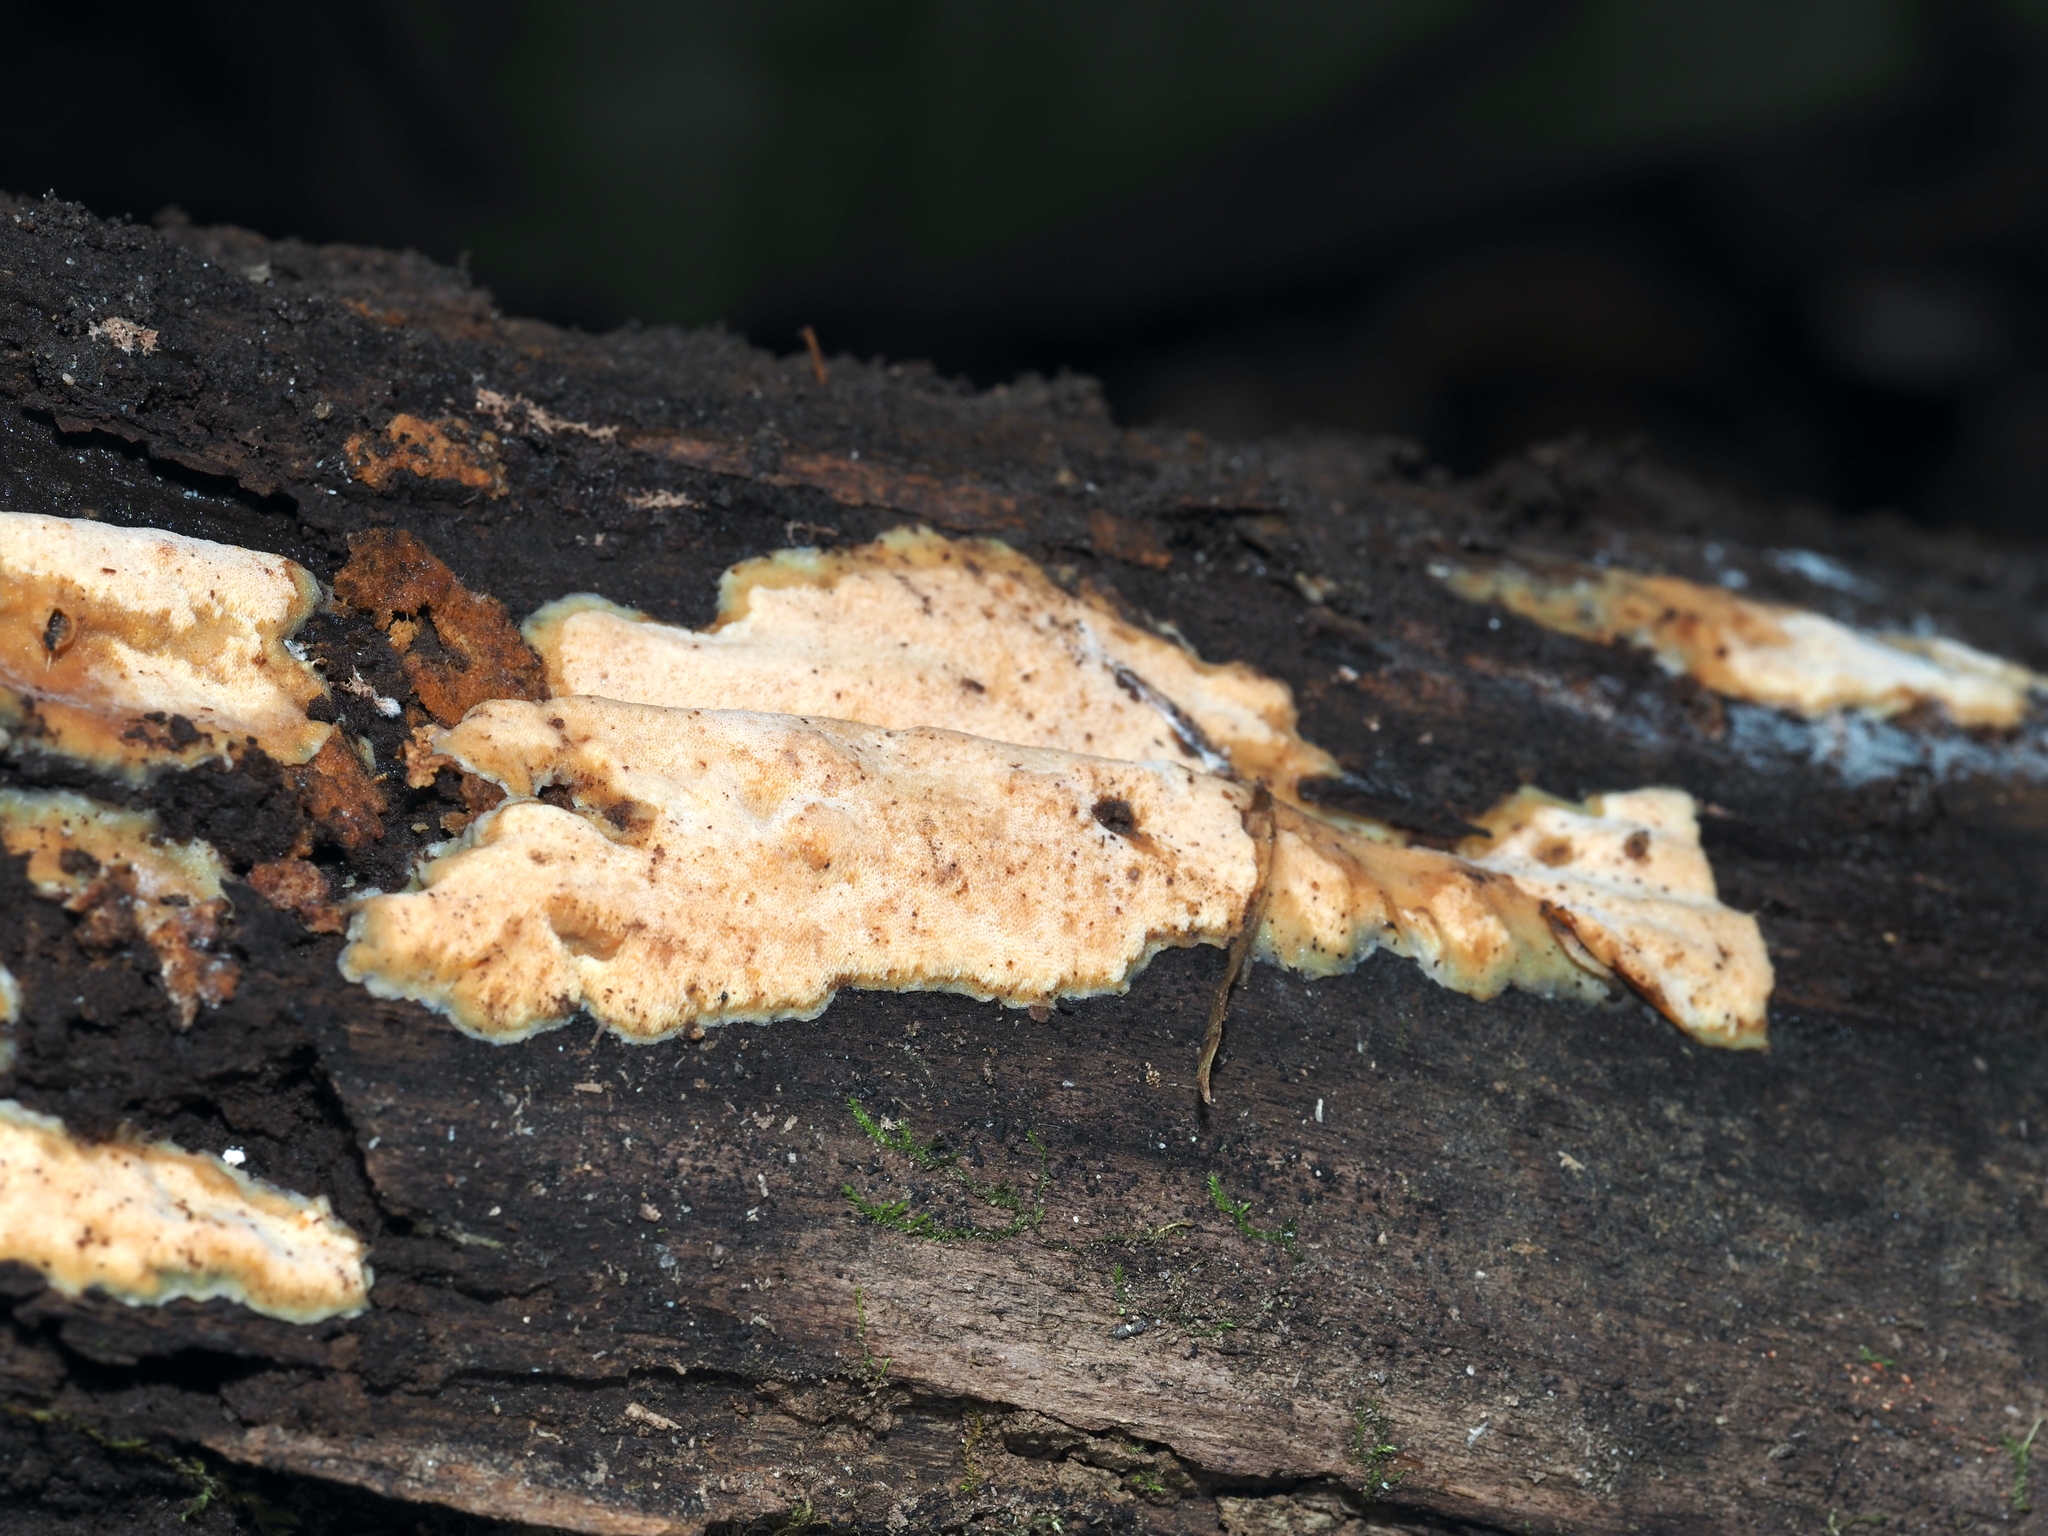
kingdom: Fungi
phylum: Basidiomycota
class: Agaricomycetes
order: Polyporales
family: Meripilaceae
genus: Rigidoporus
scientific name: Rigidoporus crocatus
